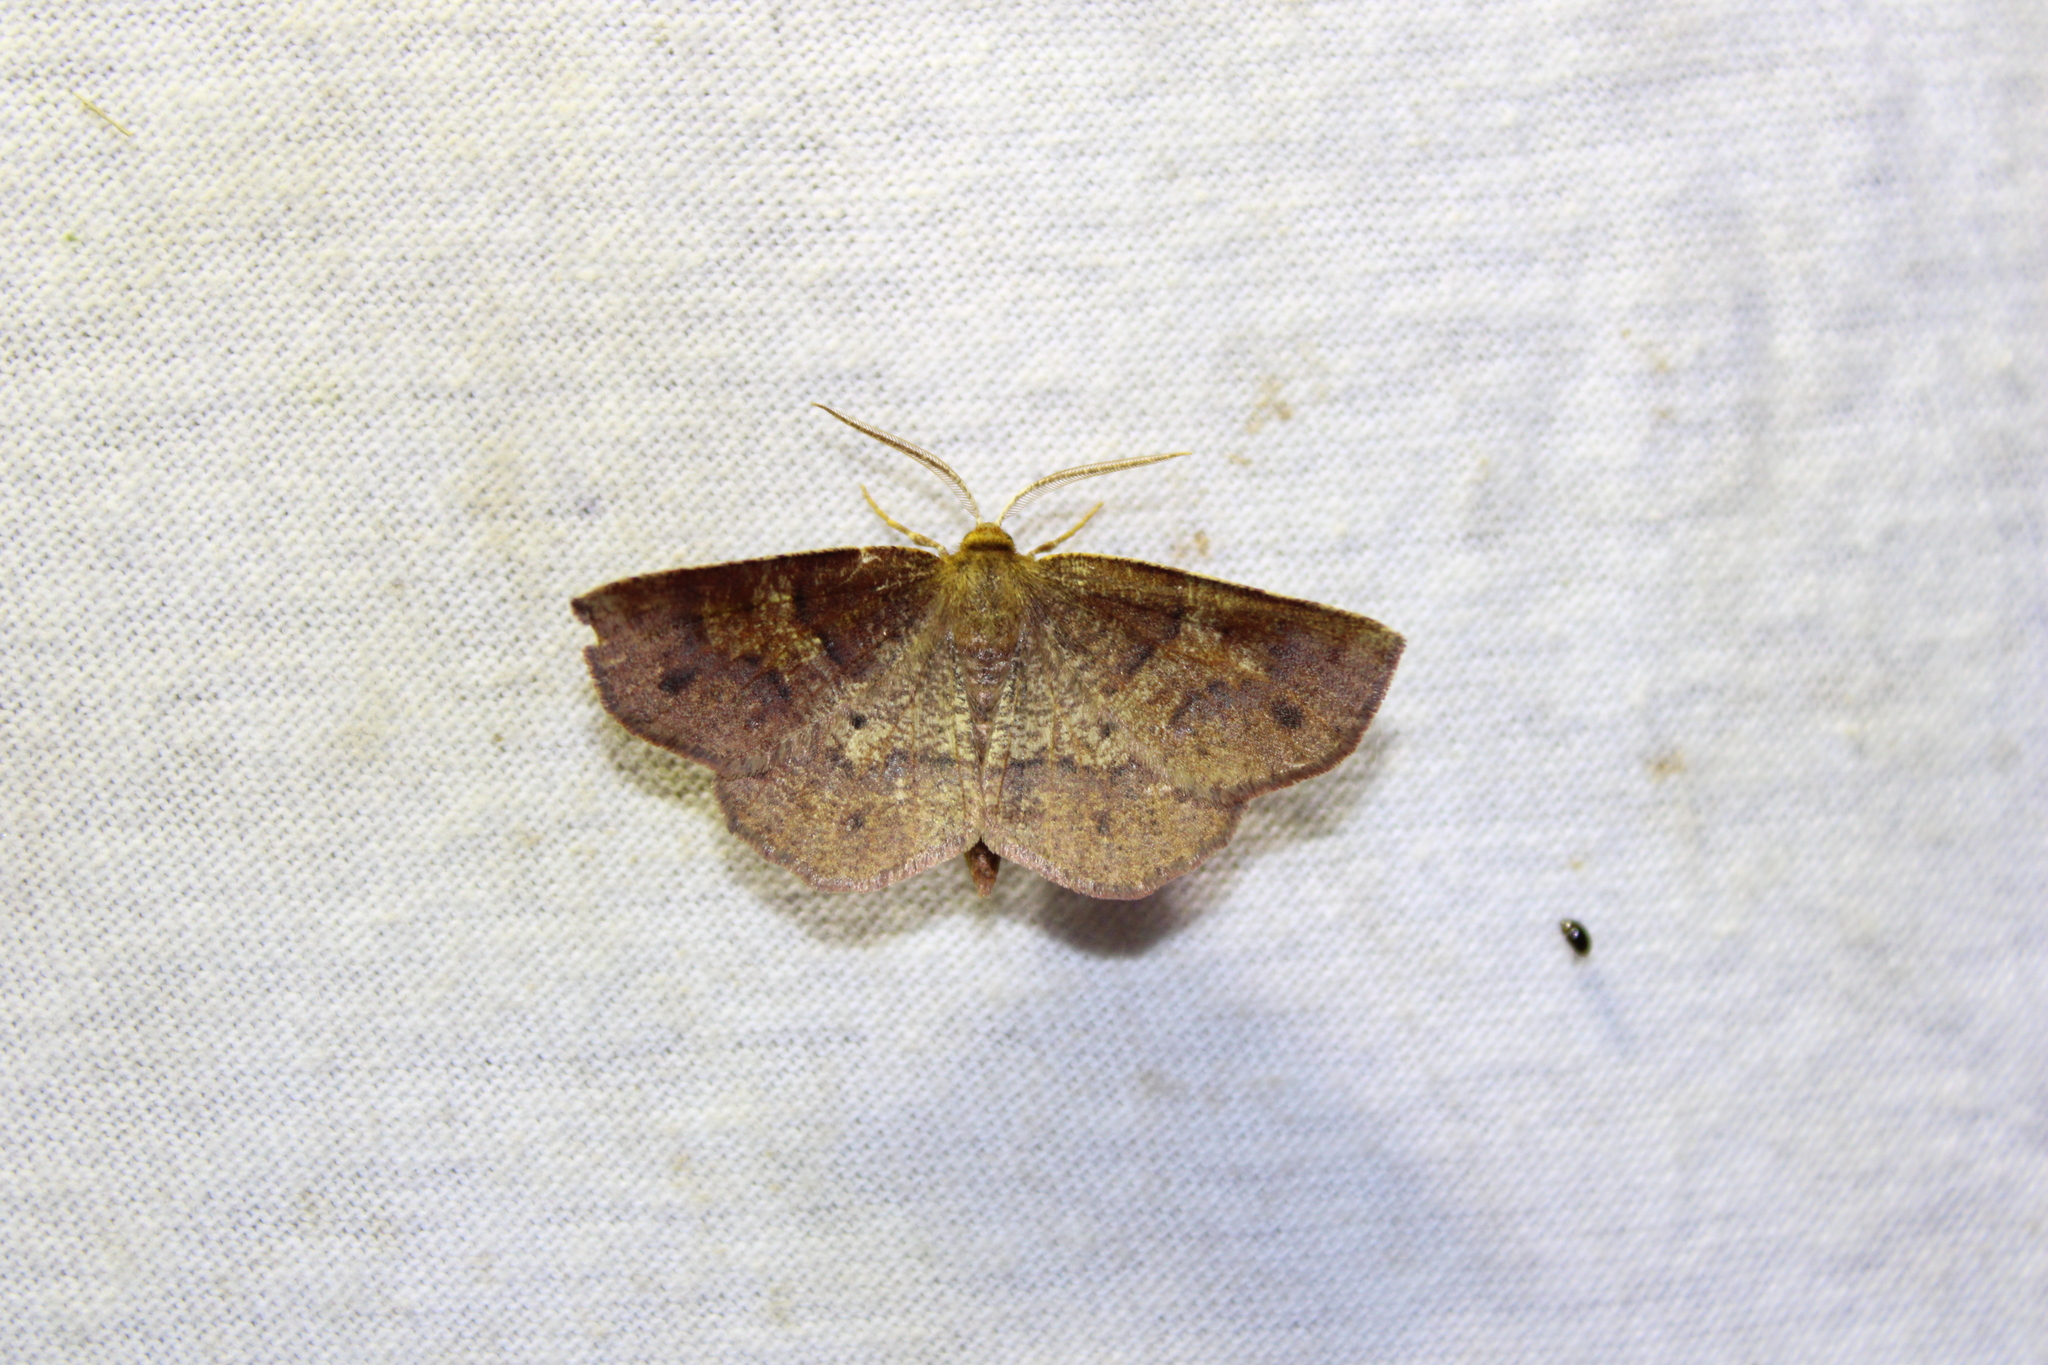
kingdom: Animalia
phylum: Arthropoda
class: Insecta
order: Lepidoptera
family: Geometridae
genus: Metarranthis
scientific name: Metarranthis angularia
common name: Angled metarranthis moth
